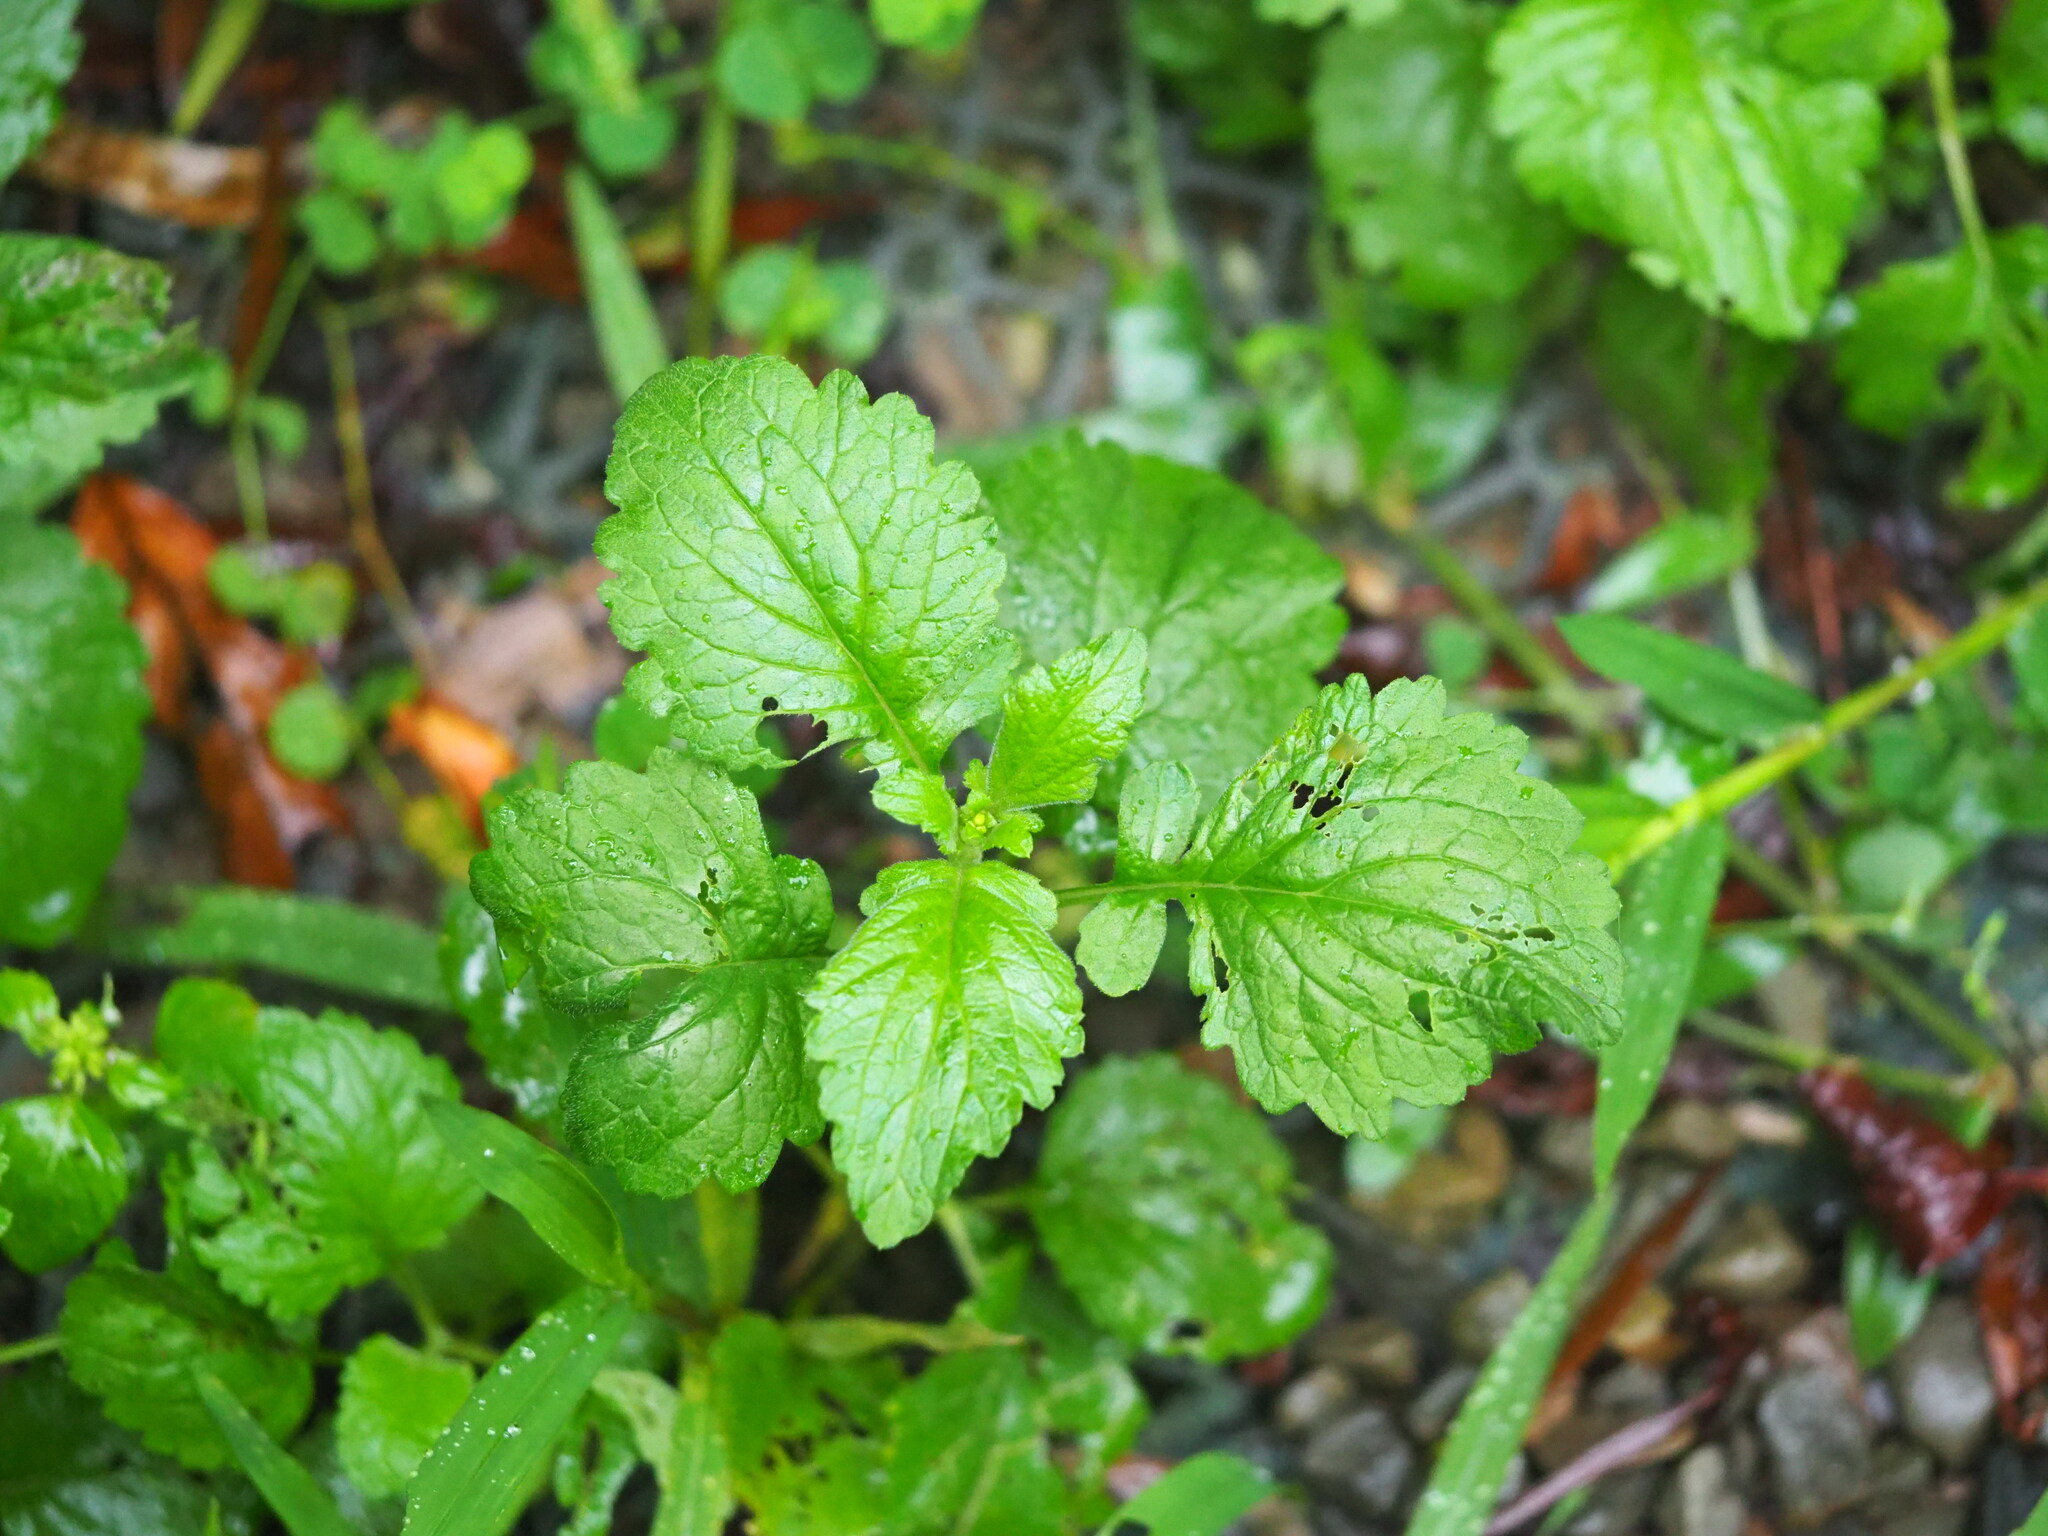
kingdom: Plantae
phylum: Tracheophyta
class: Magnoliopsida
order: Asterales
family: Asteraceae
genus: Dichrocephala
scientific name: Dichrocephala integrifolia
